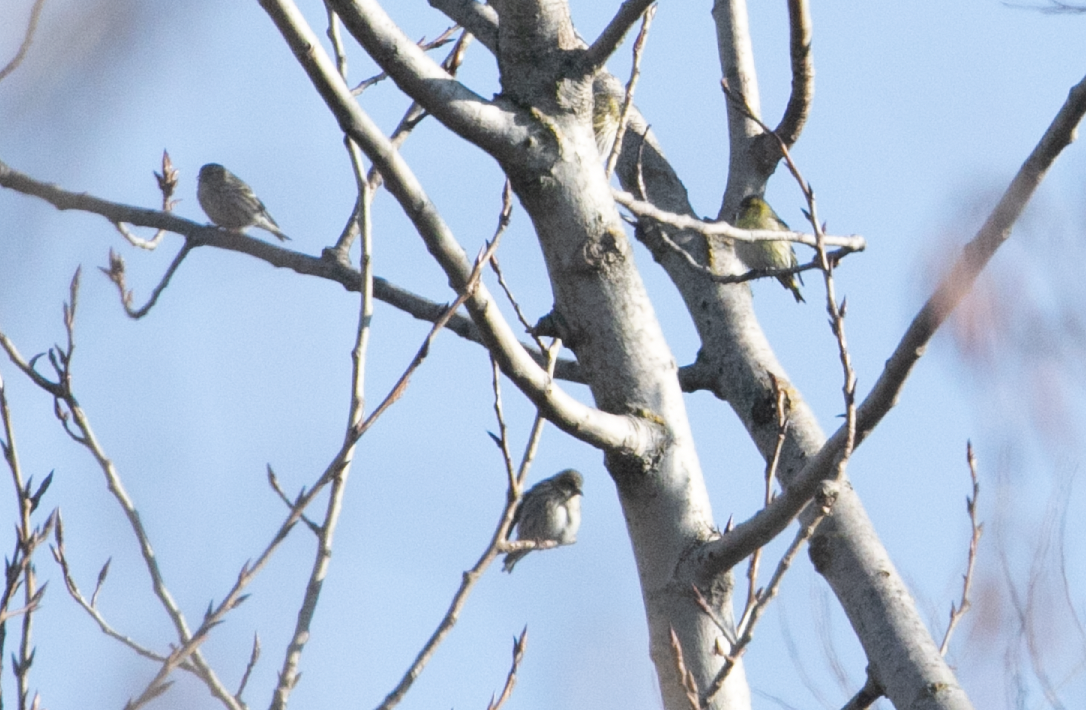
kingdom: Animalia
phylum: Chordata
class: Aves
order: Passeriformes
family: Fringillidae
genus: Spinus
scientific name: Spinus spinus
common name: Eurasian siskin
